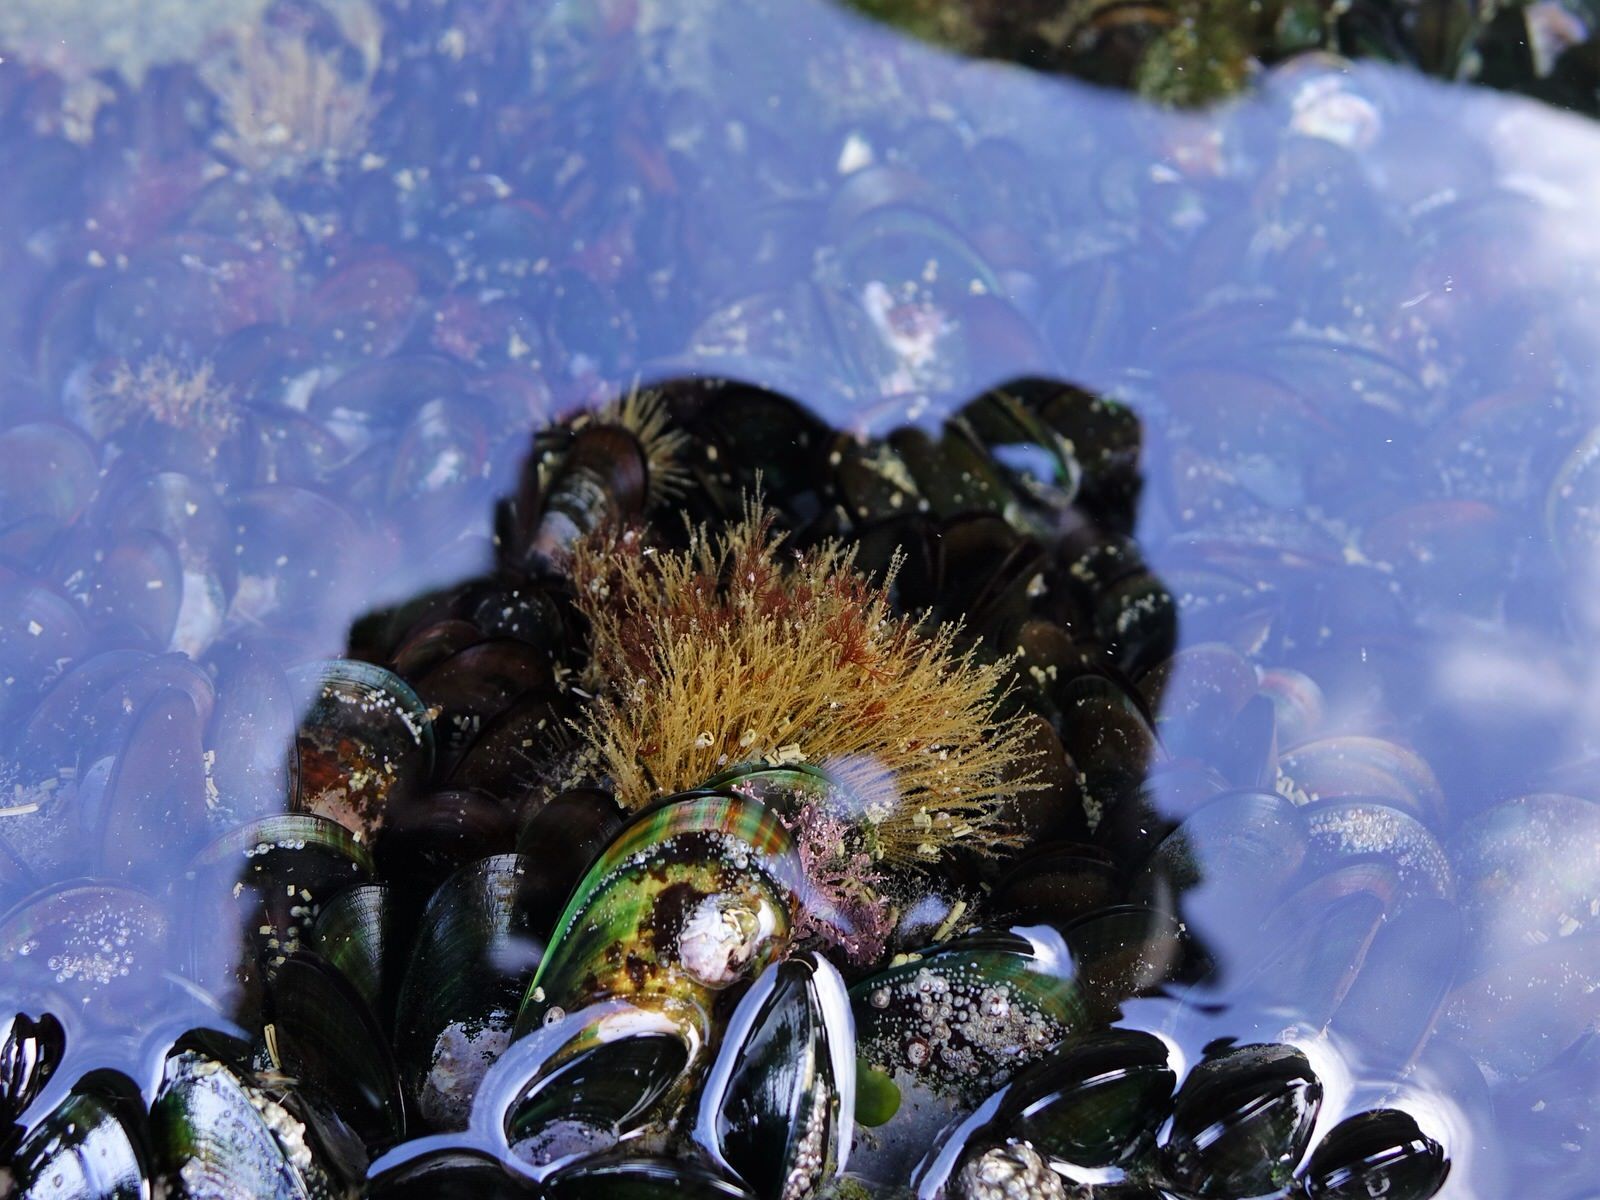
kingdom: Animalia
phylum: Cnidaria
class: Hydrozoa
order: Leptothecata
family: Sertulariidae
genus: Amphisbetia
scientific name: Amphisbetia bispinosa
